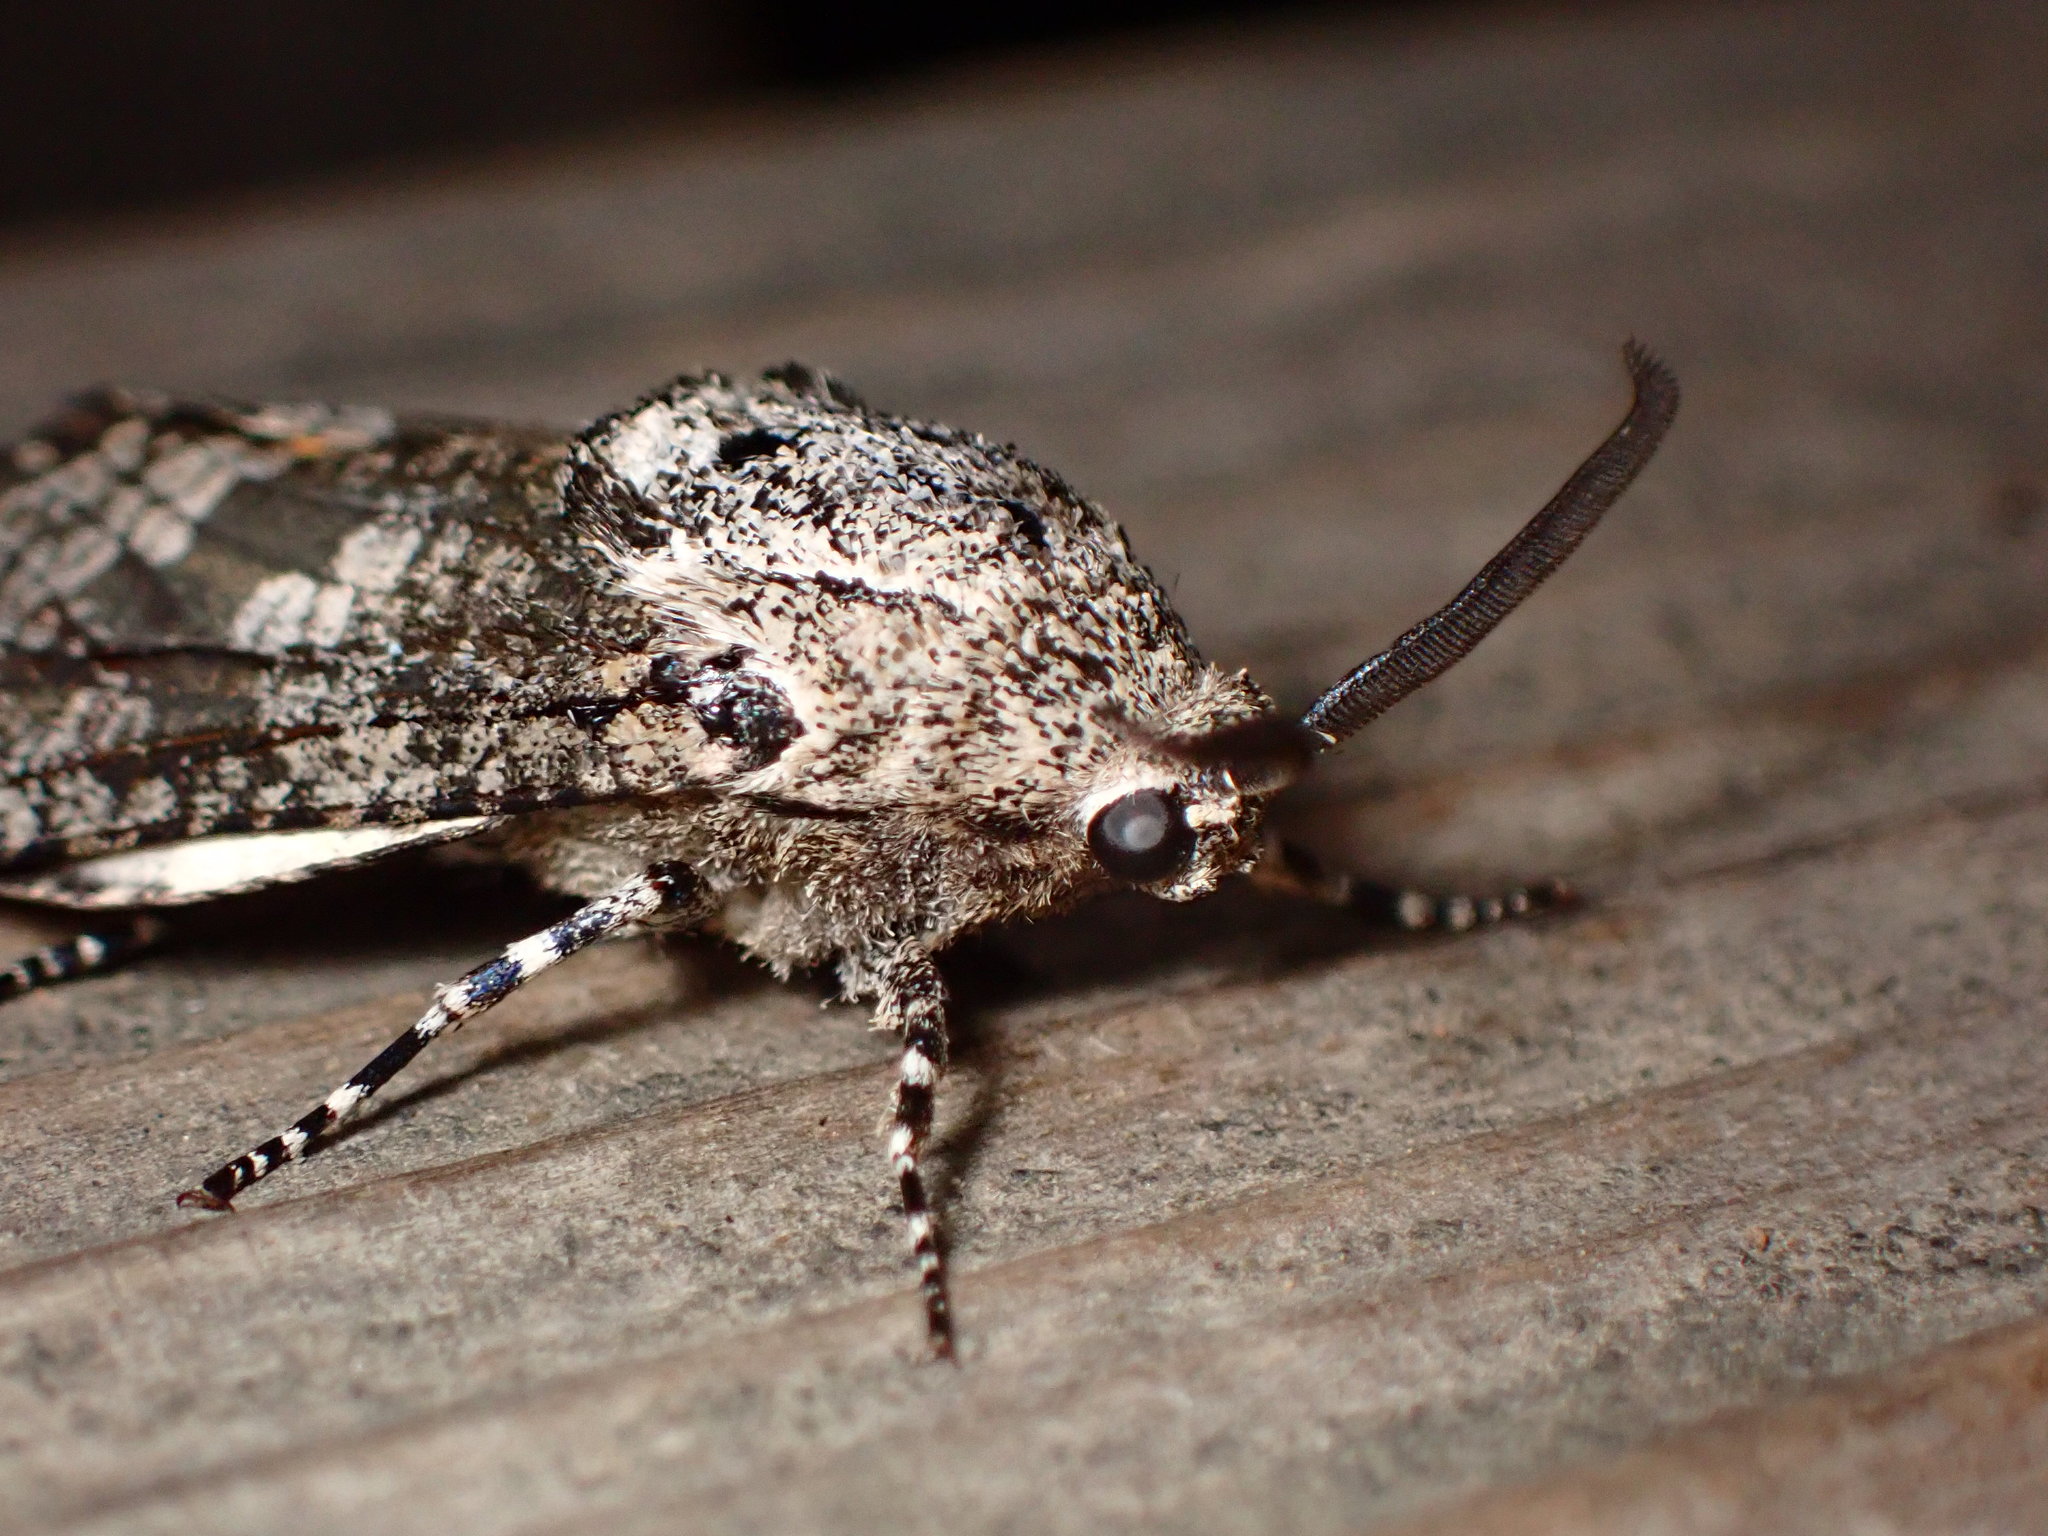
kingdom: Animalia
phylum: Arthropoda
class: Insecta
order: Lepidoptera
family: Cossidae
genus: Prionoxystus
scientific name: Prionoxystus robiniae
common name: Carpenterworm
